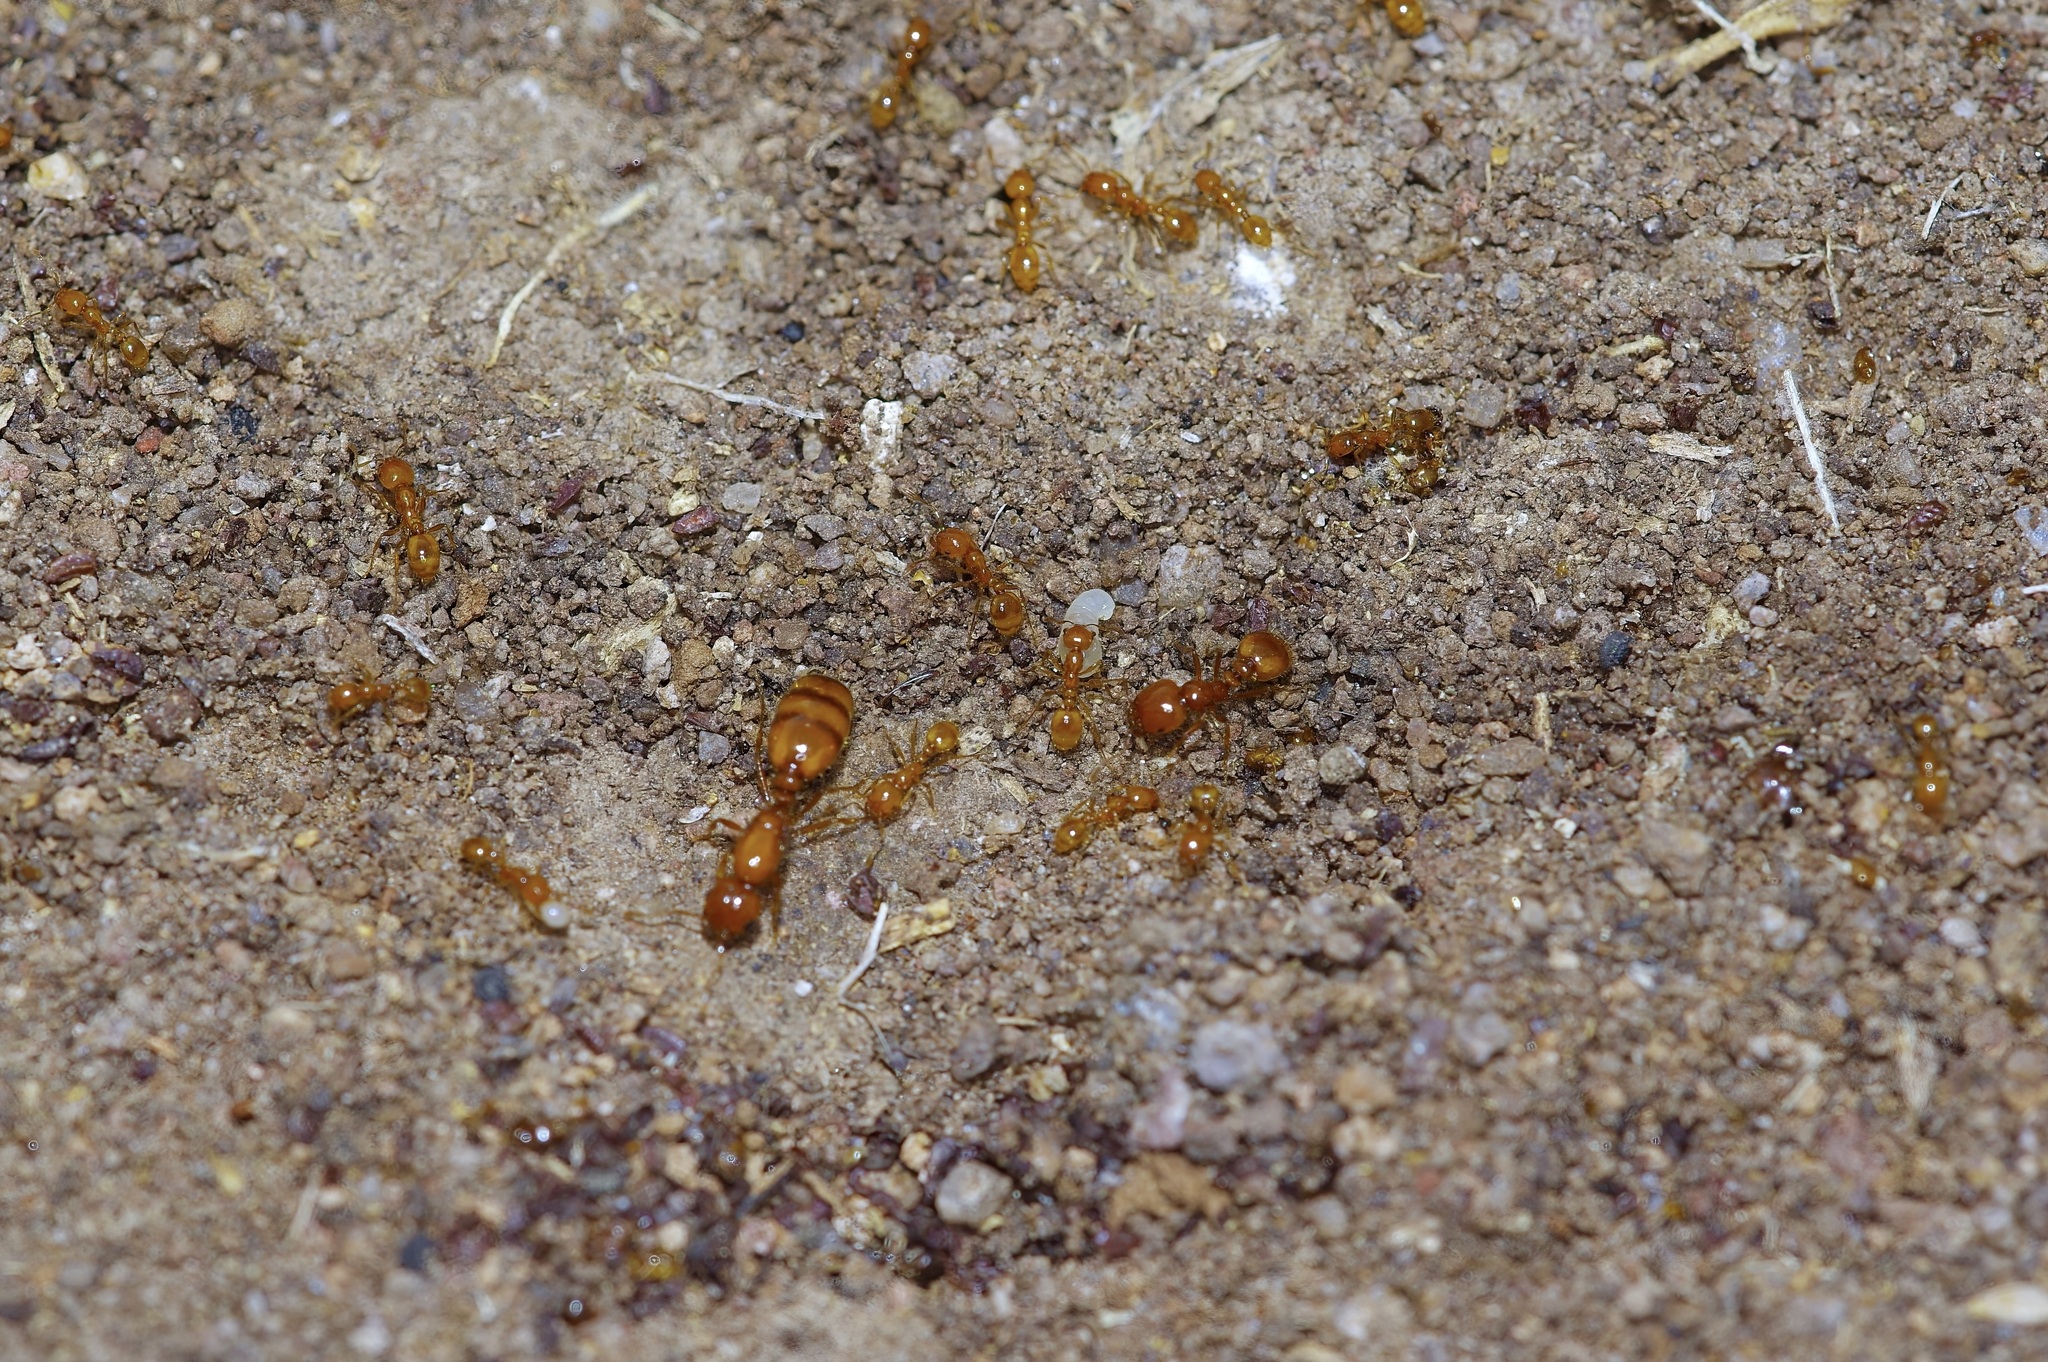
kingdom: Animalia
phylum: Arthropoda
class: Insecta
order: Hymenoptera
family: Formicidae
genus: Solenopsis
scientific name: Solenopsis aurea
